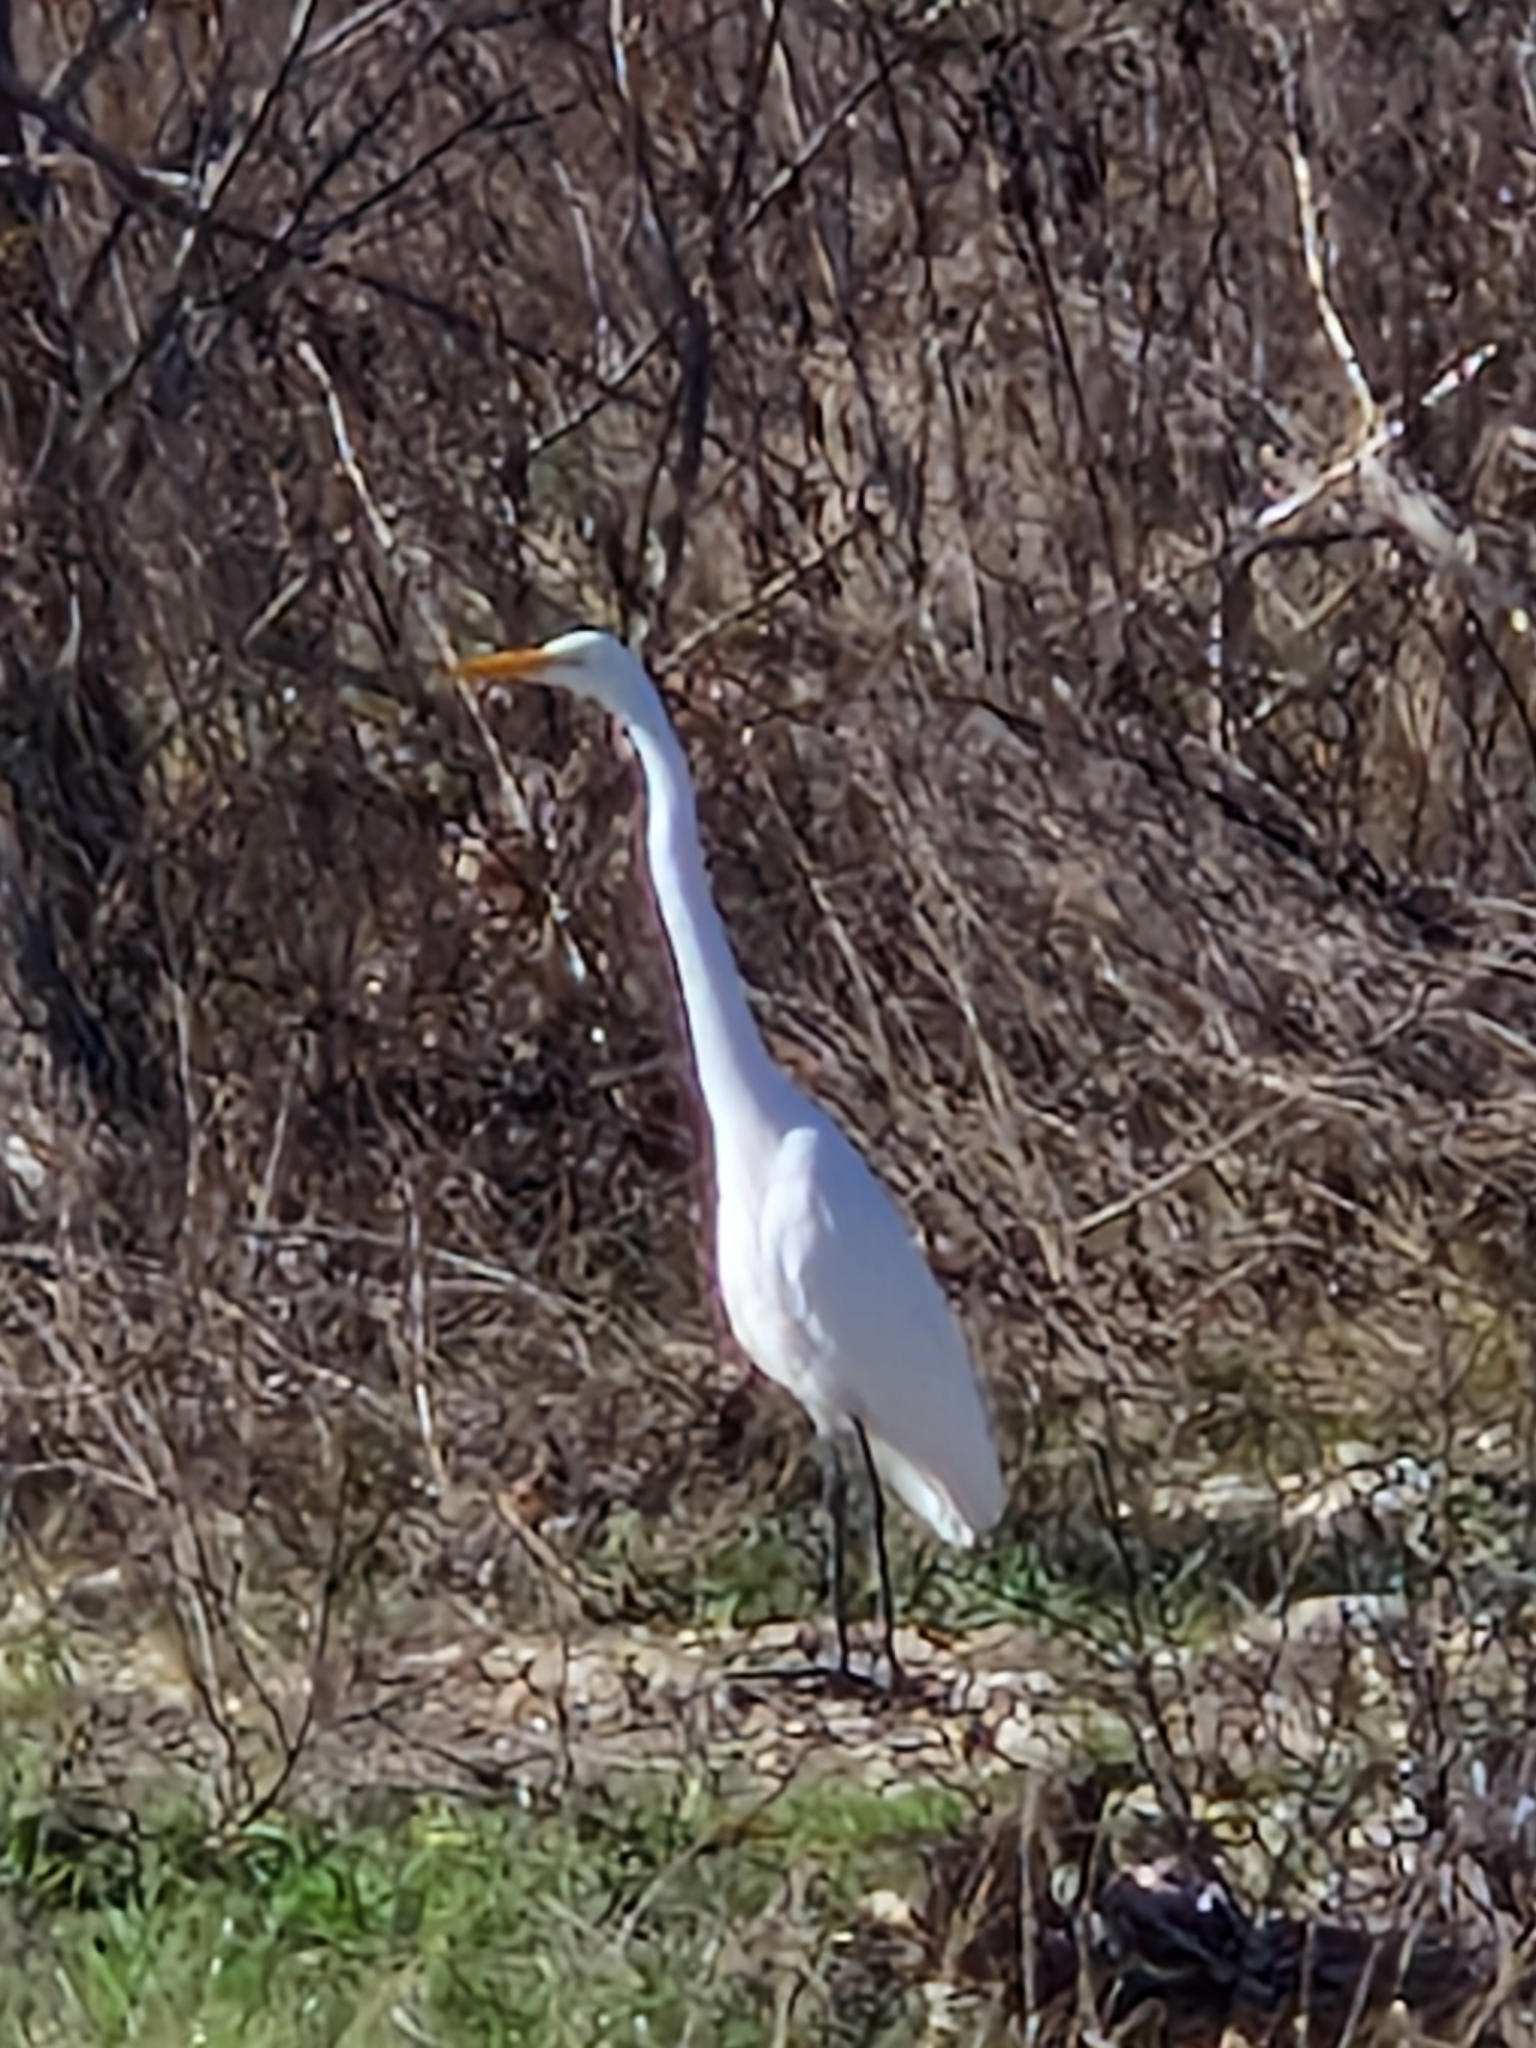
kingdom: Animalia
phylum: Chordata
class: Aves
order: Pelecaniformes
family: Ardeidae
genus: Ardea
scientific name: Ardea alba
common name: Great egret
